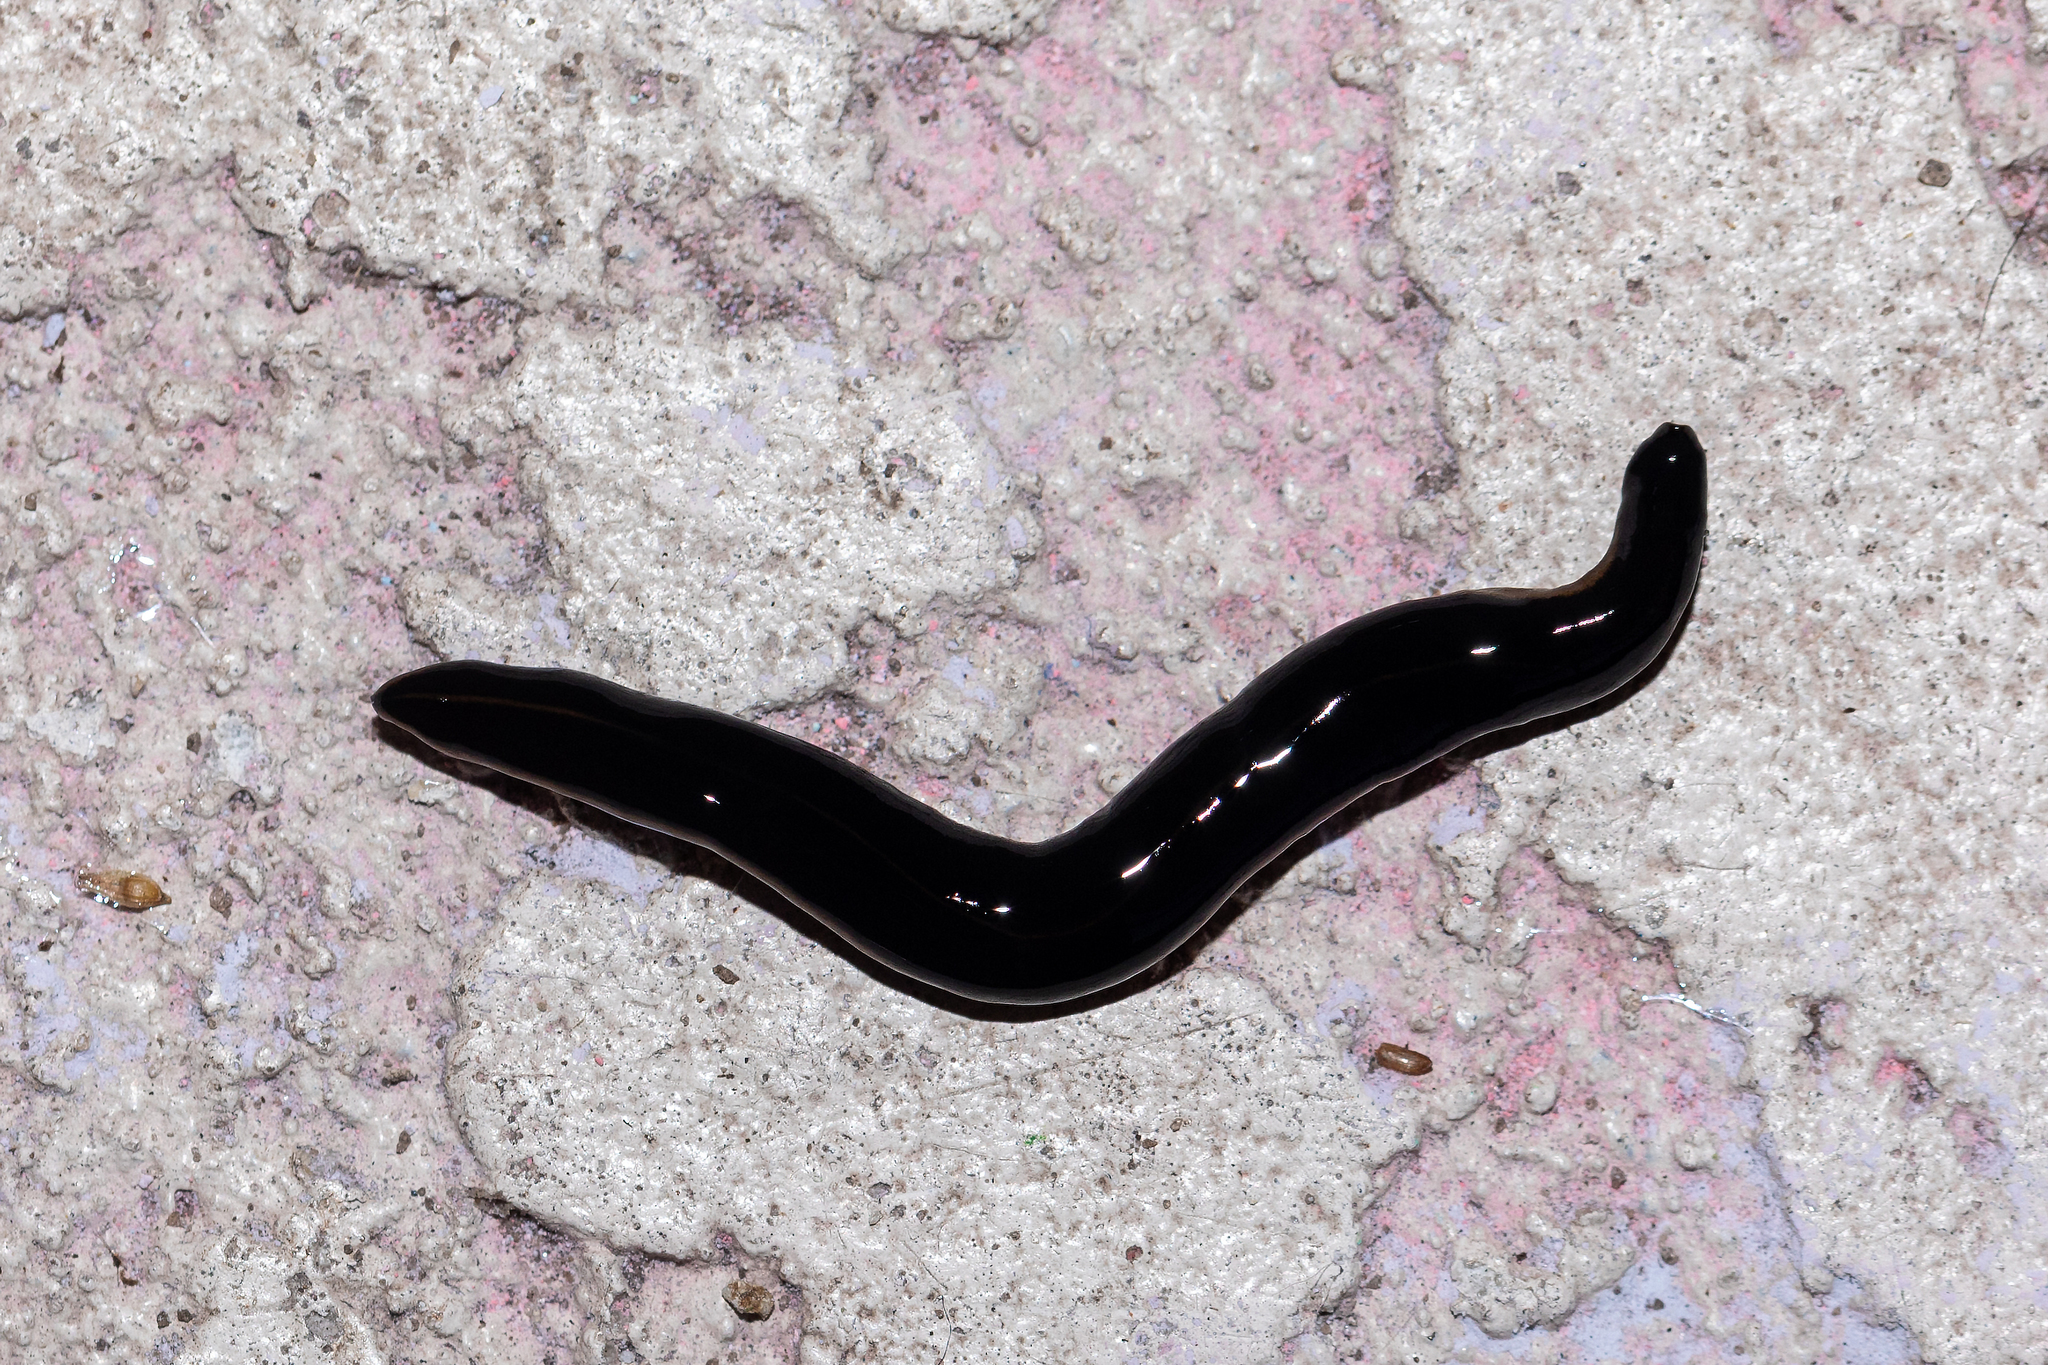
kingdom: Animalia
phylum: Platyhelminthes
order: Tricladida
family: Geoplanidae
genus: Platydemus
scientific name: Platydemus manokwari
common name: New guinea flatworm
